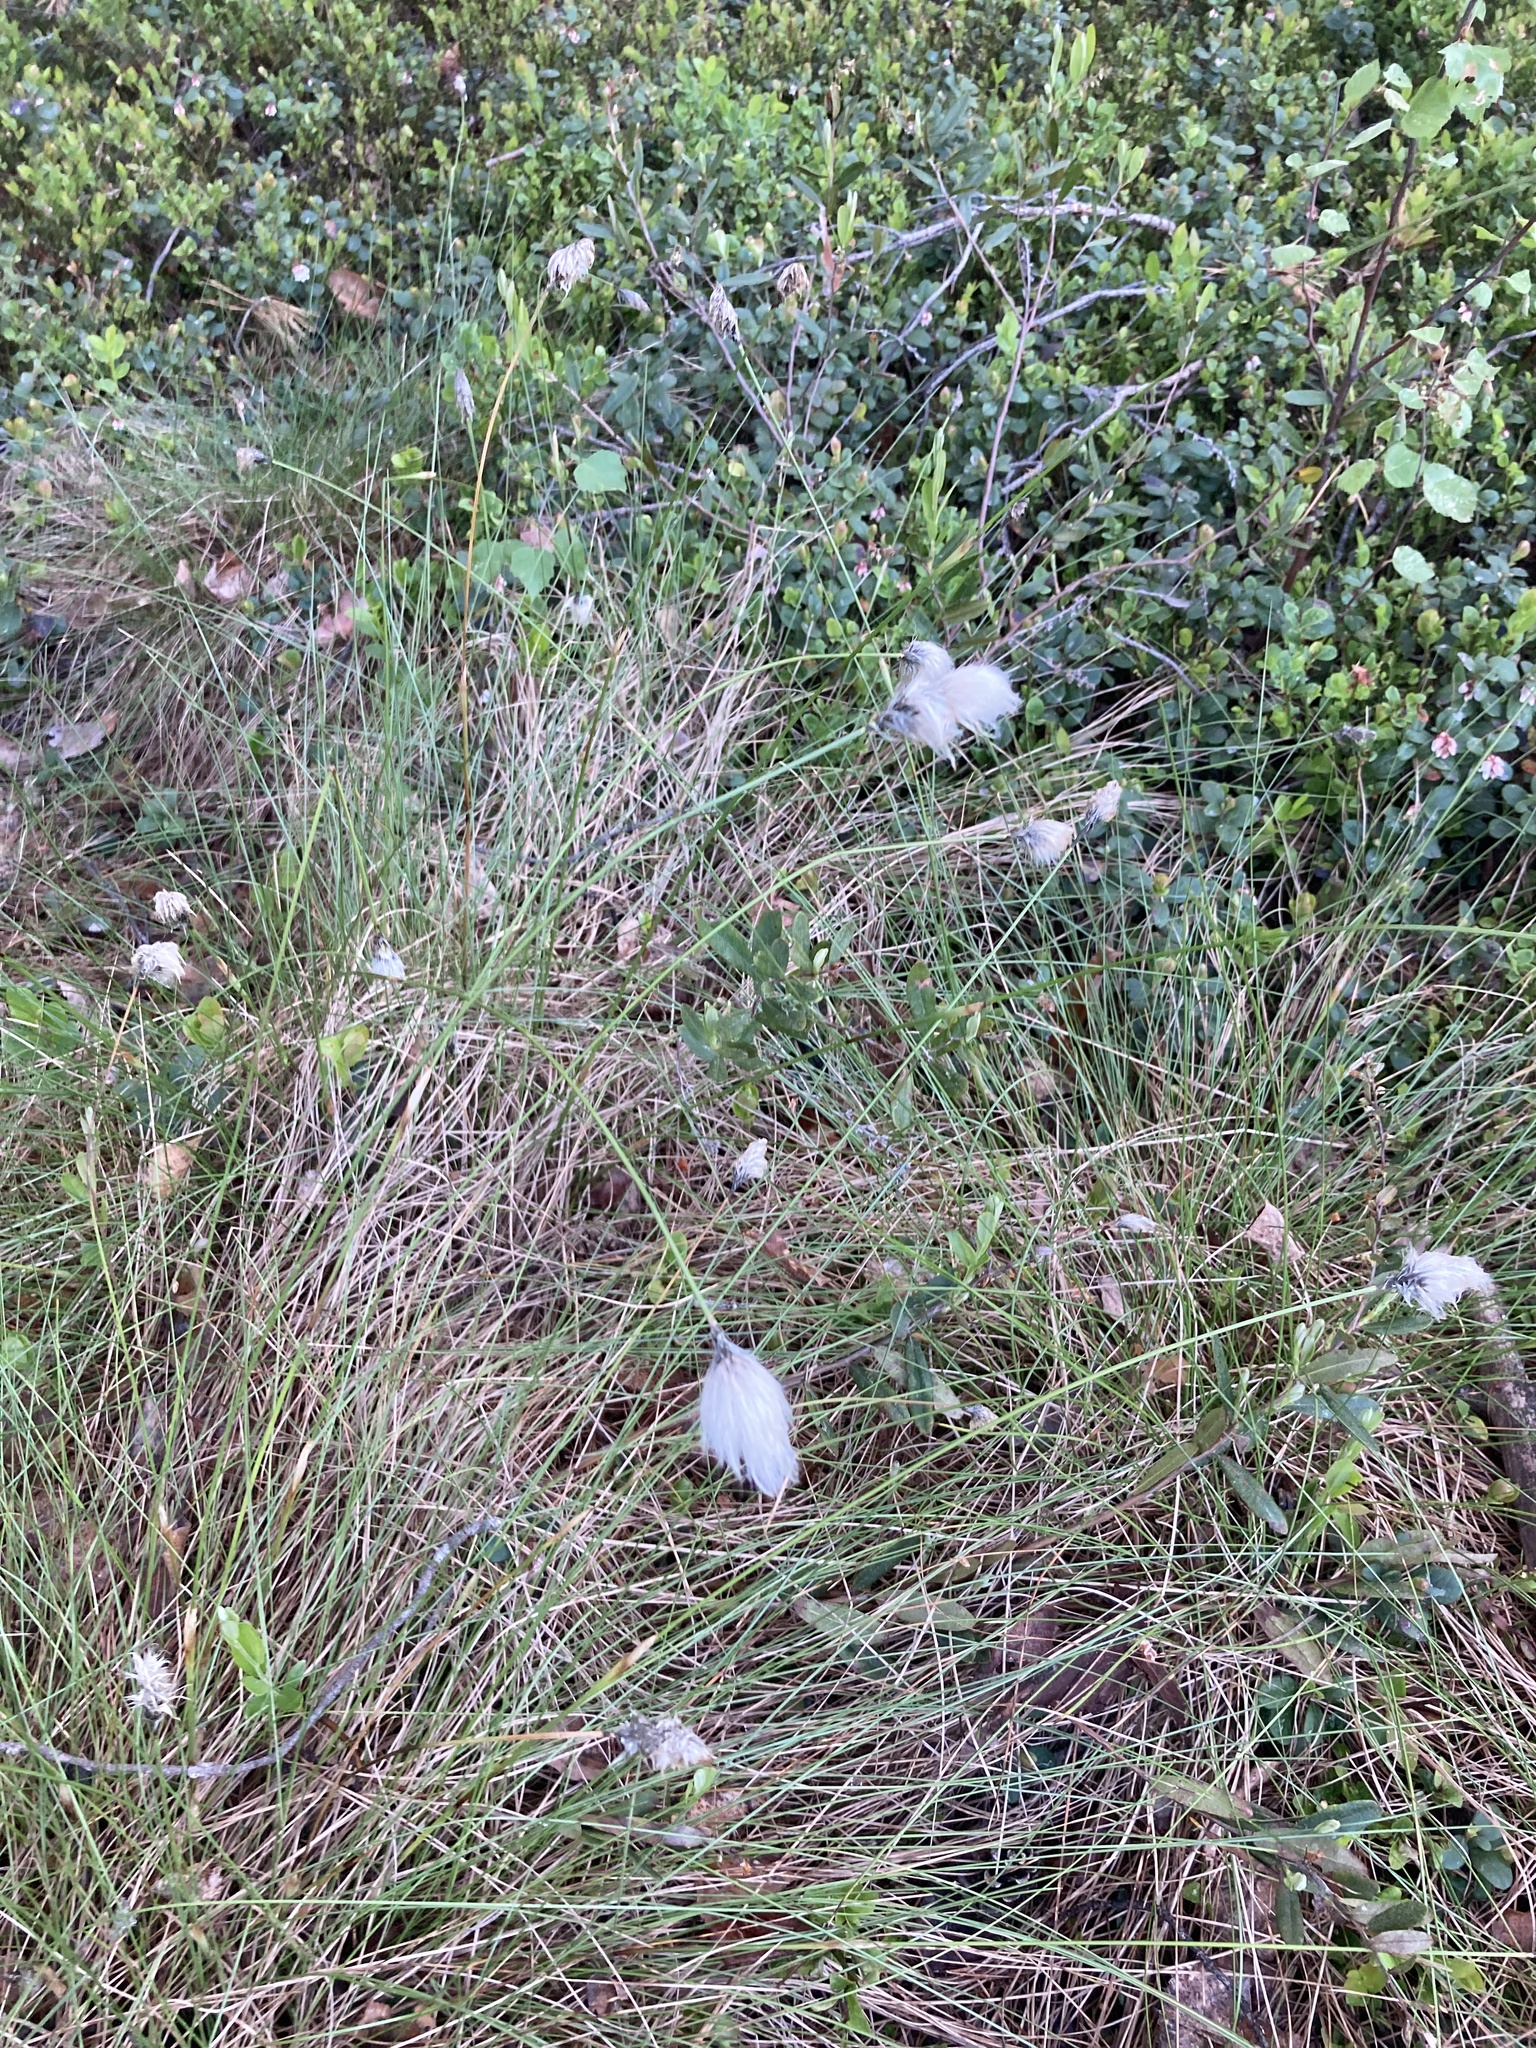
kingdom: Plantae
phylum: Tracheophyta
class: Liliopsida
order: Poales
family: Cyperaceae
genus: Eriophorum
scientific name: Eriophorum vaginatum
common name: Hare's-tail cottongrass
